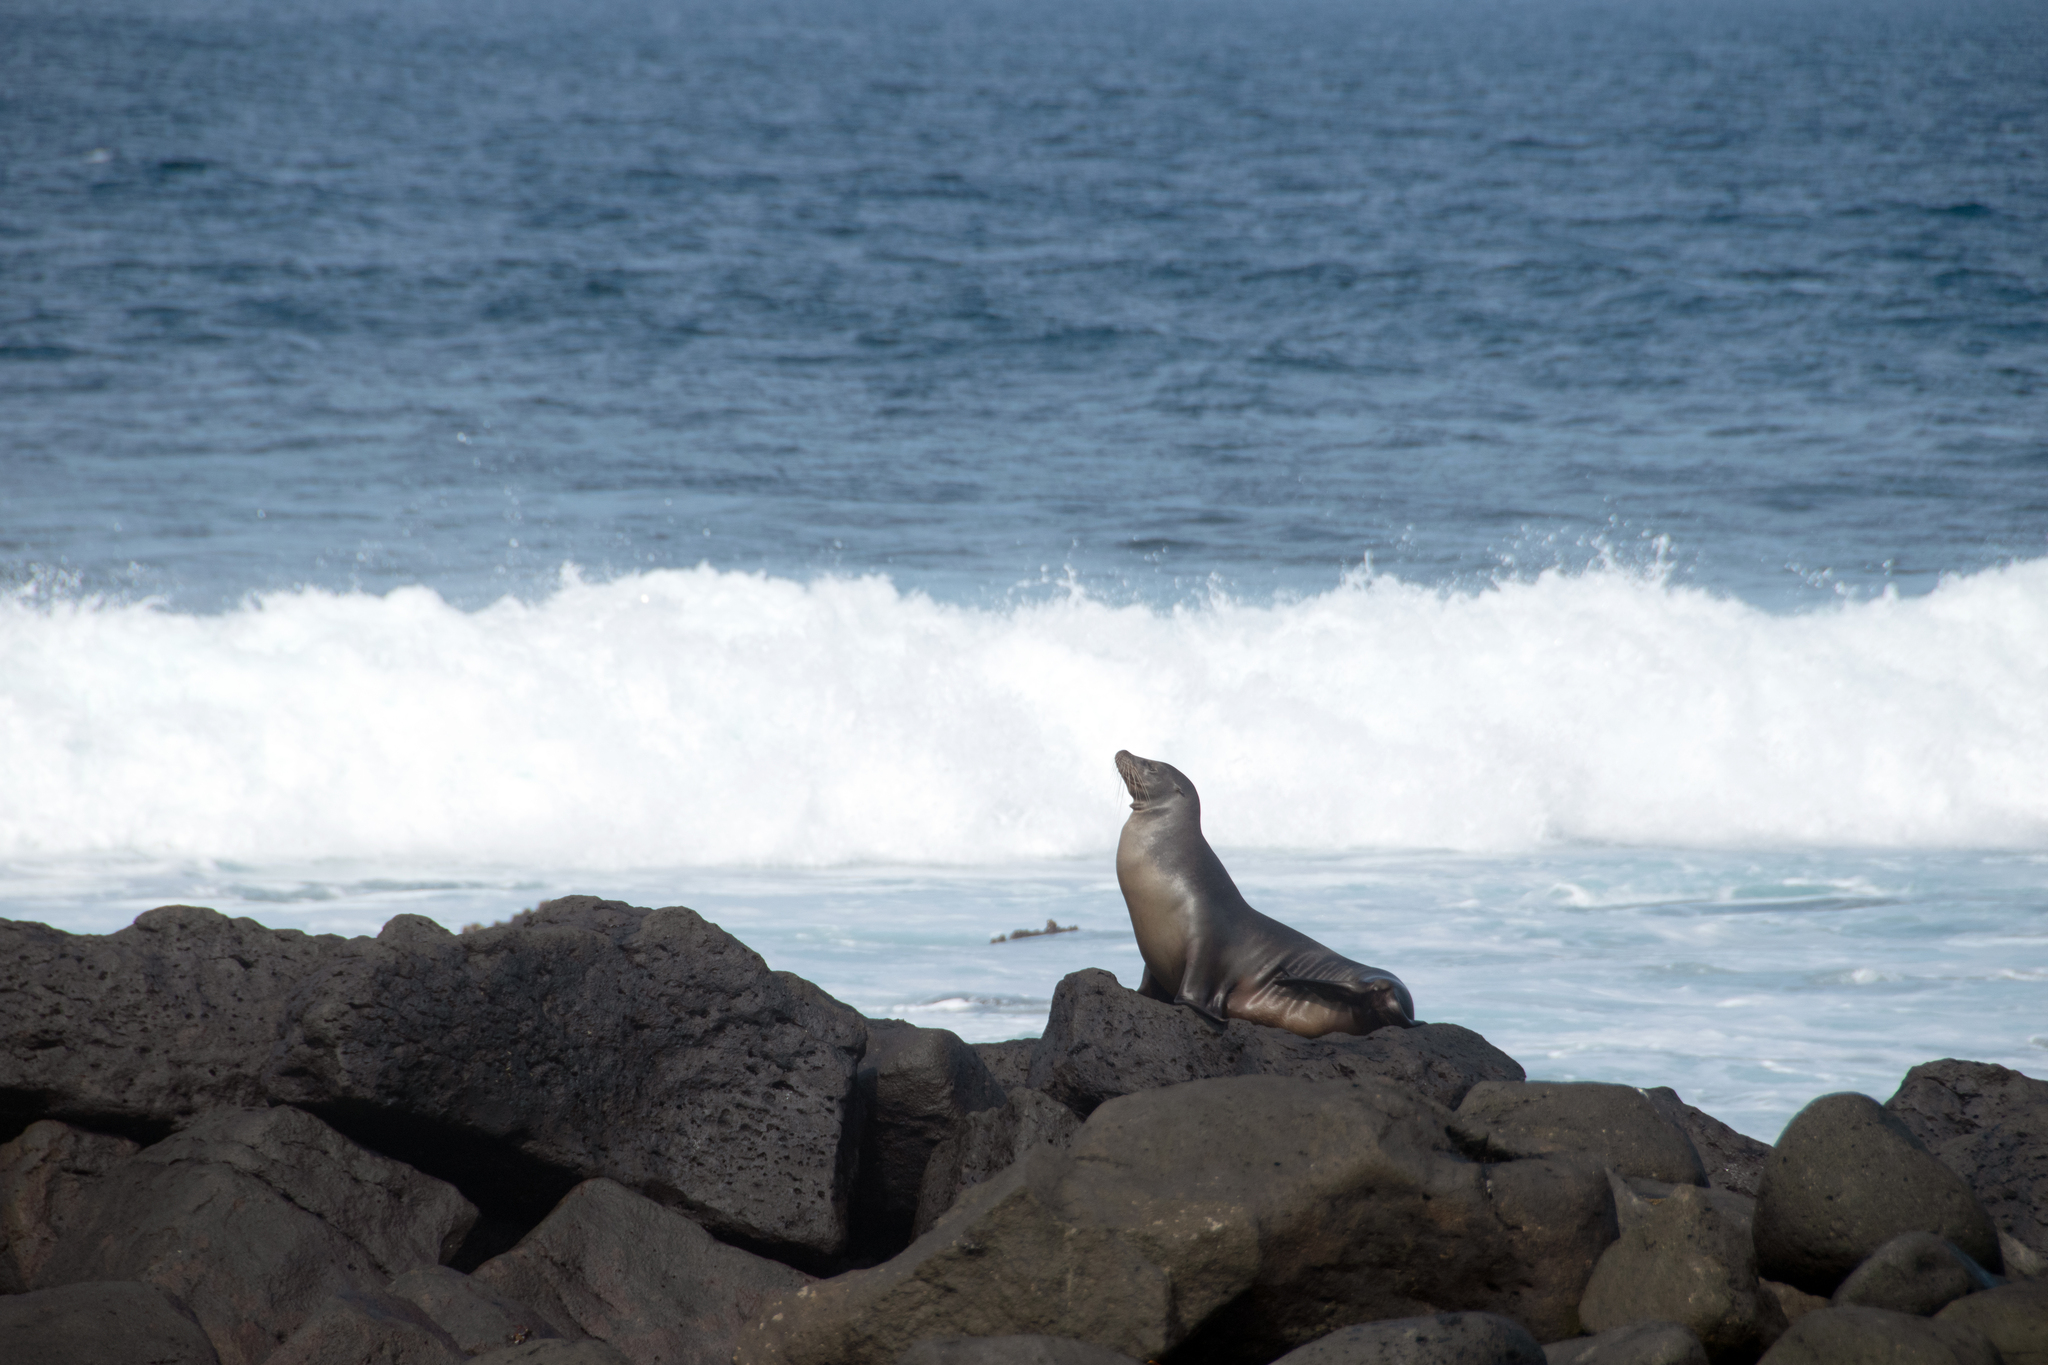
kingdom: Animalia
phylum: Chordata
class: Mammalia
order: Carnivora
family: Otariidae
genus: Zalophus
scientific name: Zalophus wollebaeki
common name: Galapagos sea lion
